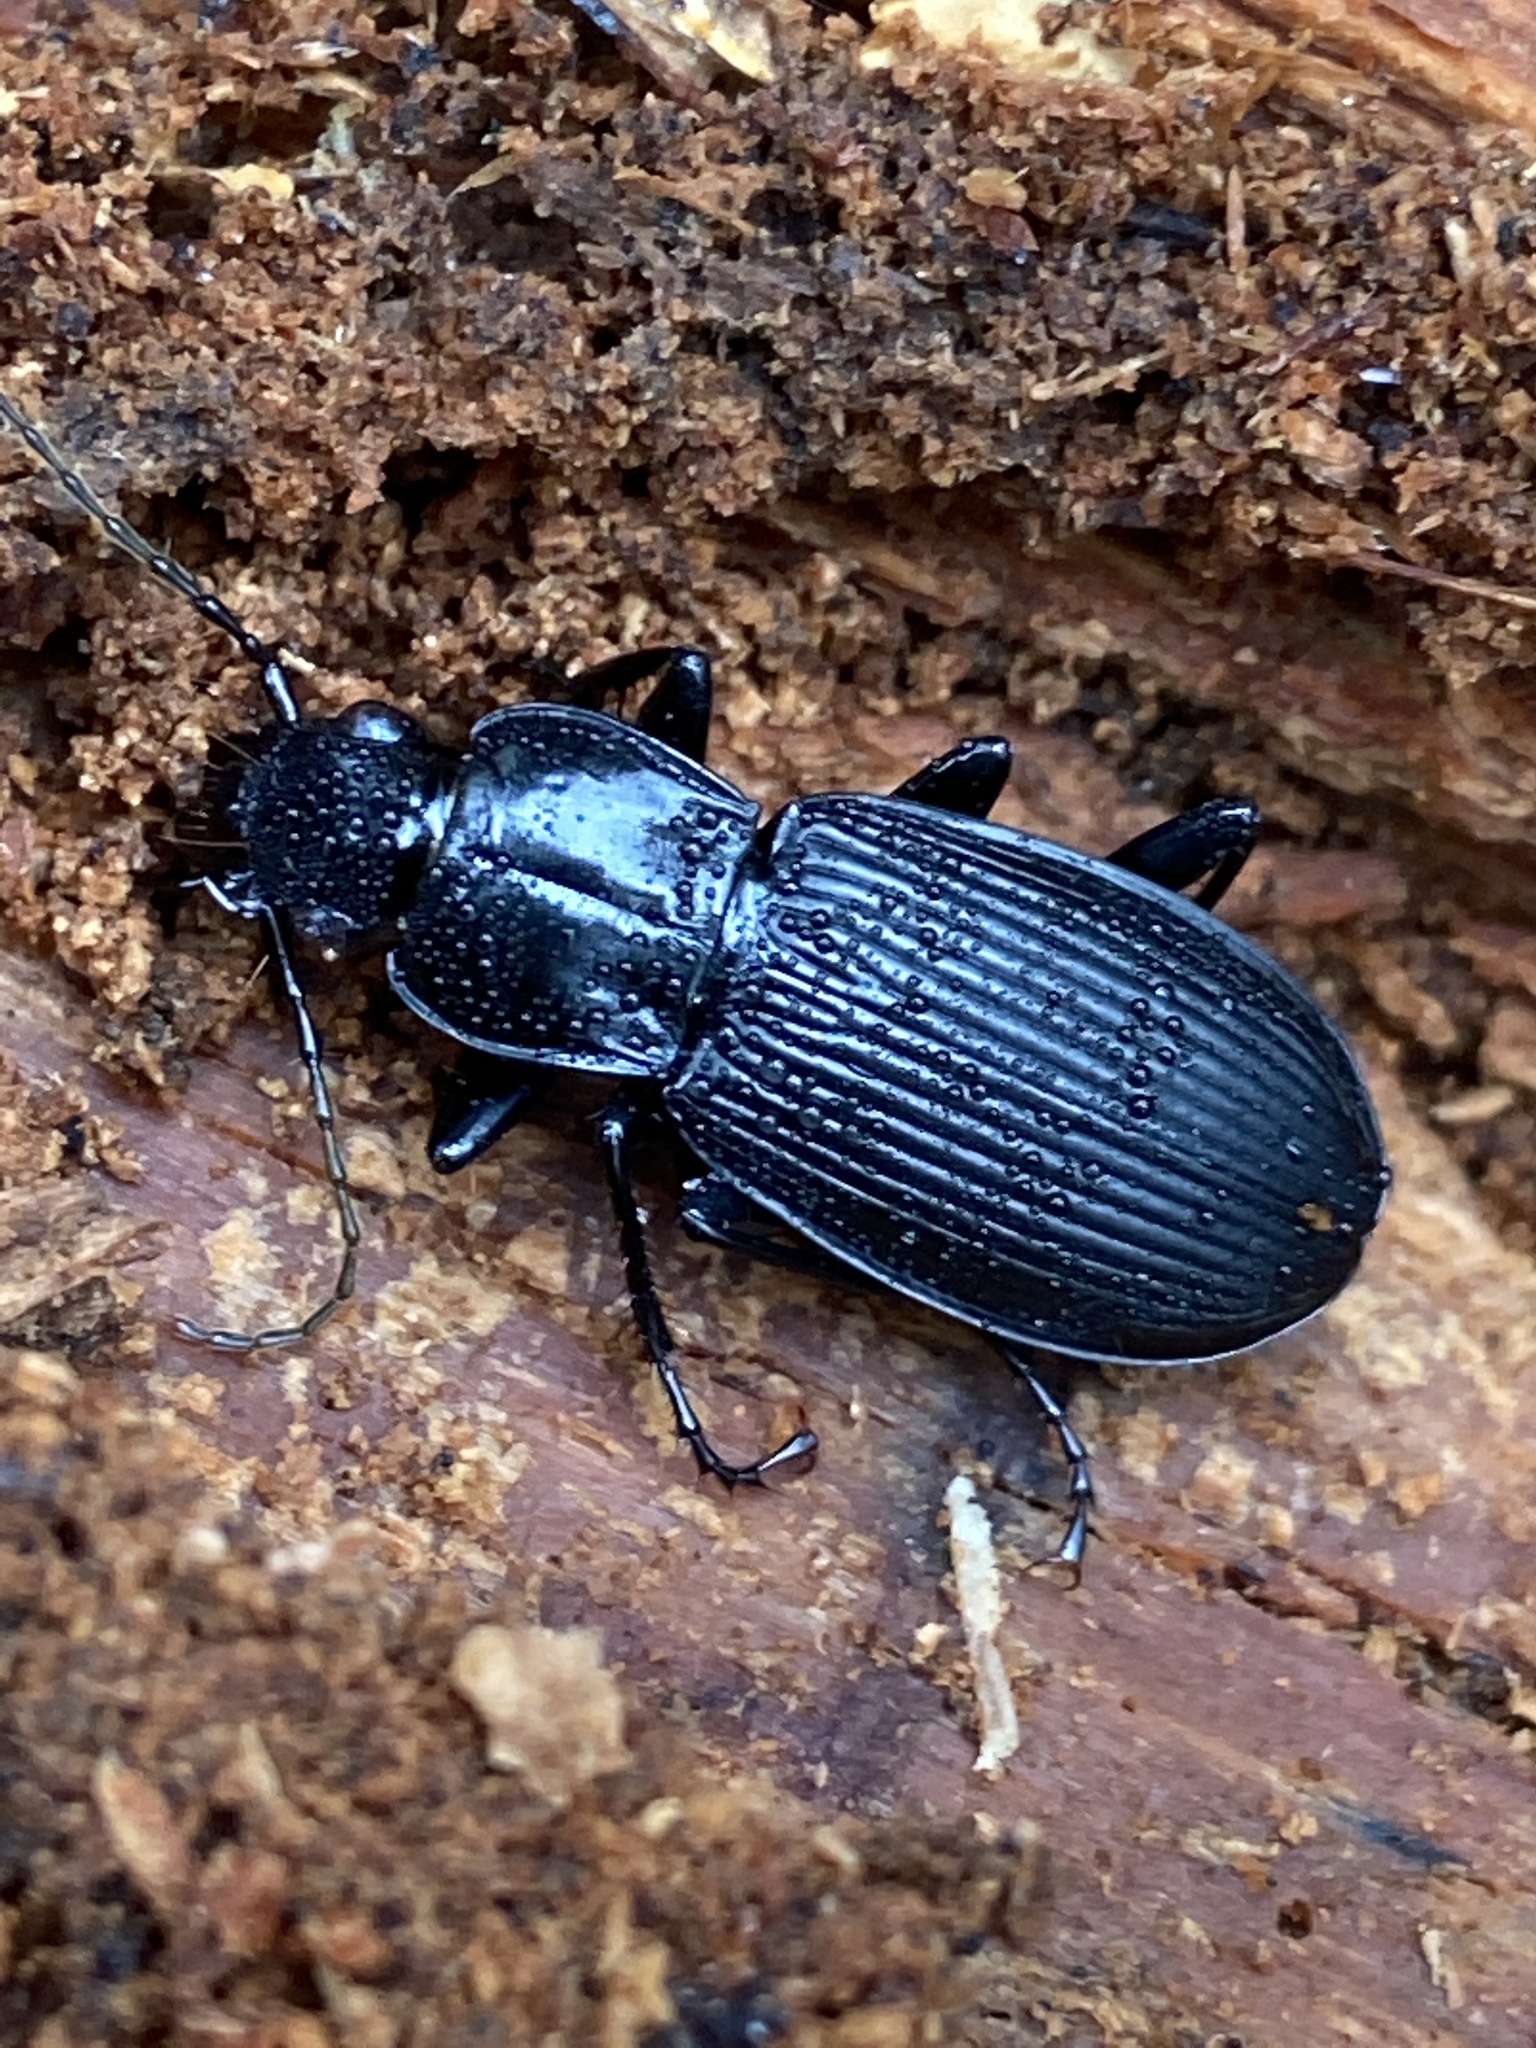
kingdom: Animalia
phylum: Arthropoda
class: Insecta
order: Coleoptera
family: Carabidae
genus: Pterostichus
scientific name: Pterostichus niger
